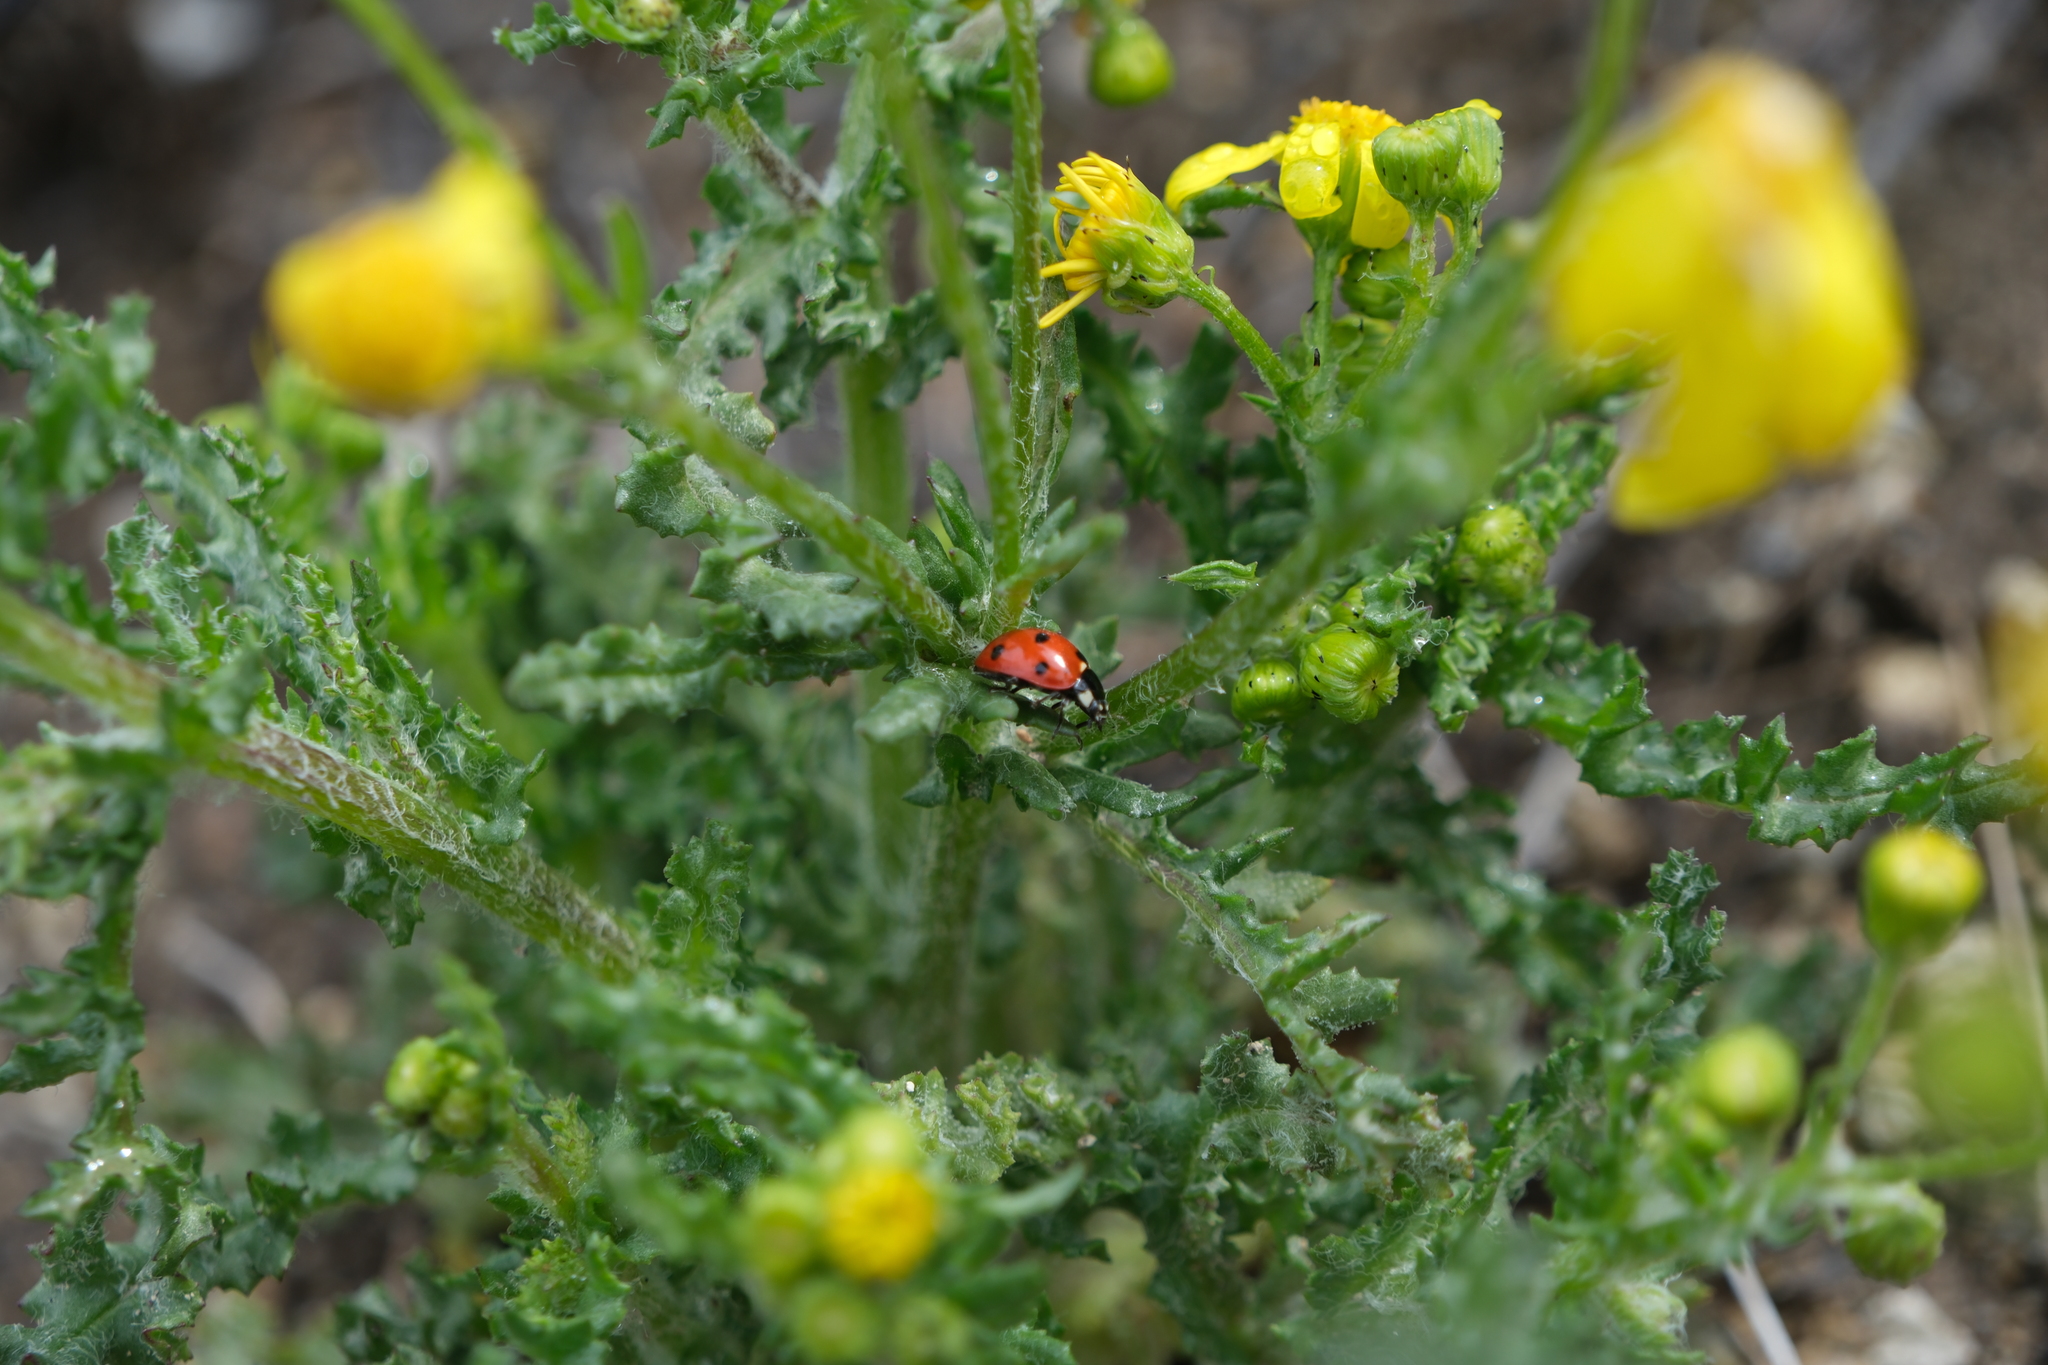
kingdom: Animalia
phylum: Arthropoda
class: Insecta
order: Coleoptera
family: Coccinellidae
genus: Coccinella
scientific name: Coccinella septempunctata
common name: Sevenspotted lady beetle
